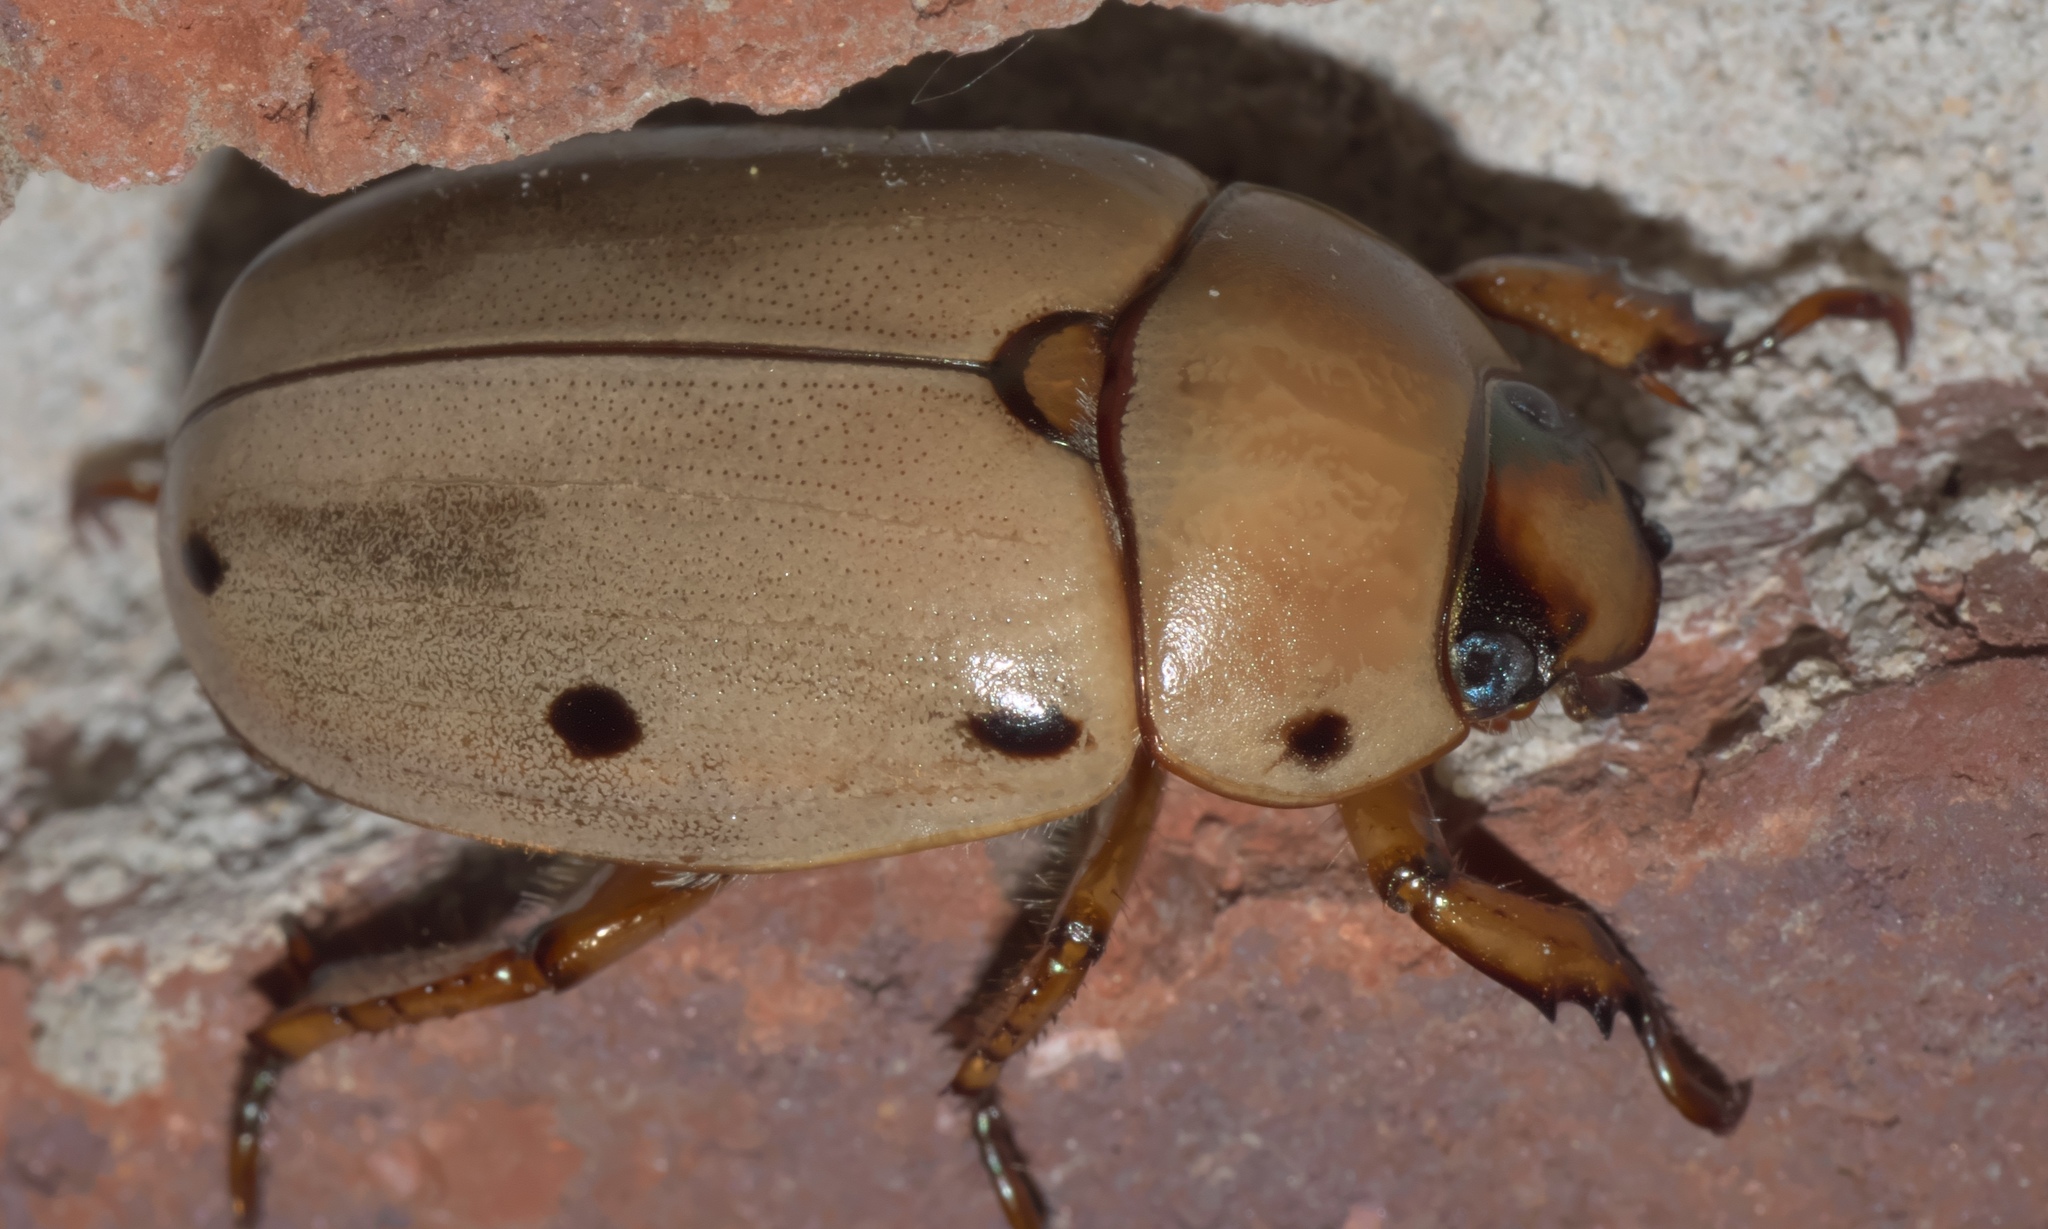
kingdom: Animalia
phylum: Arthropoda
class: Insecta
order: Coleoptera
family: Scarabaeidae
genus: Pelidnota
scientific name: Pelidnota punctata
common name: Grapevine beetle
